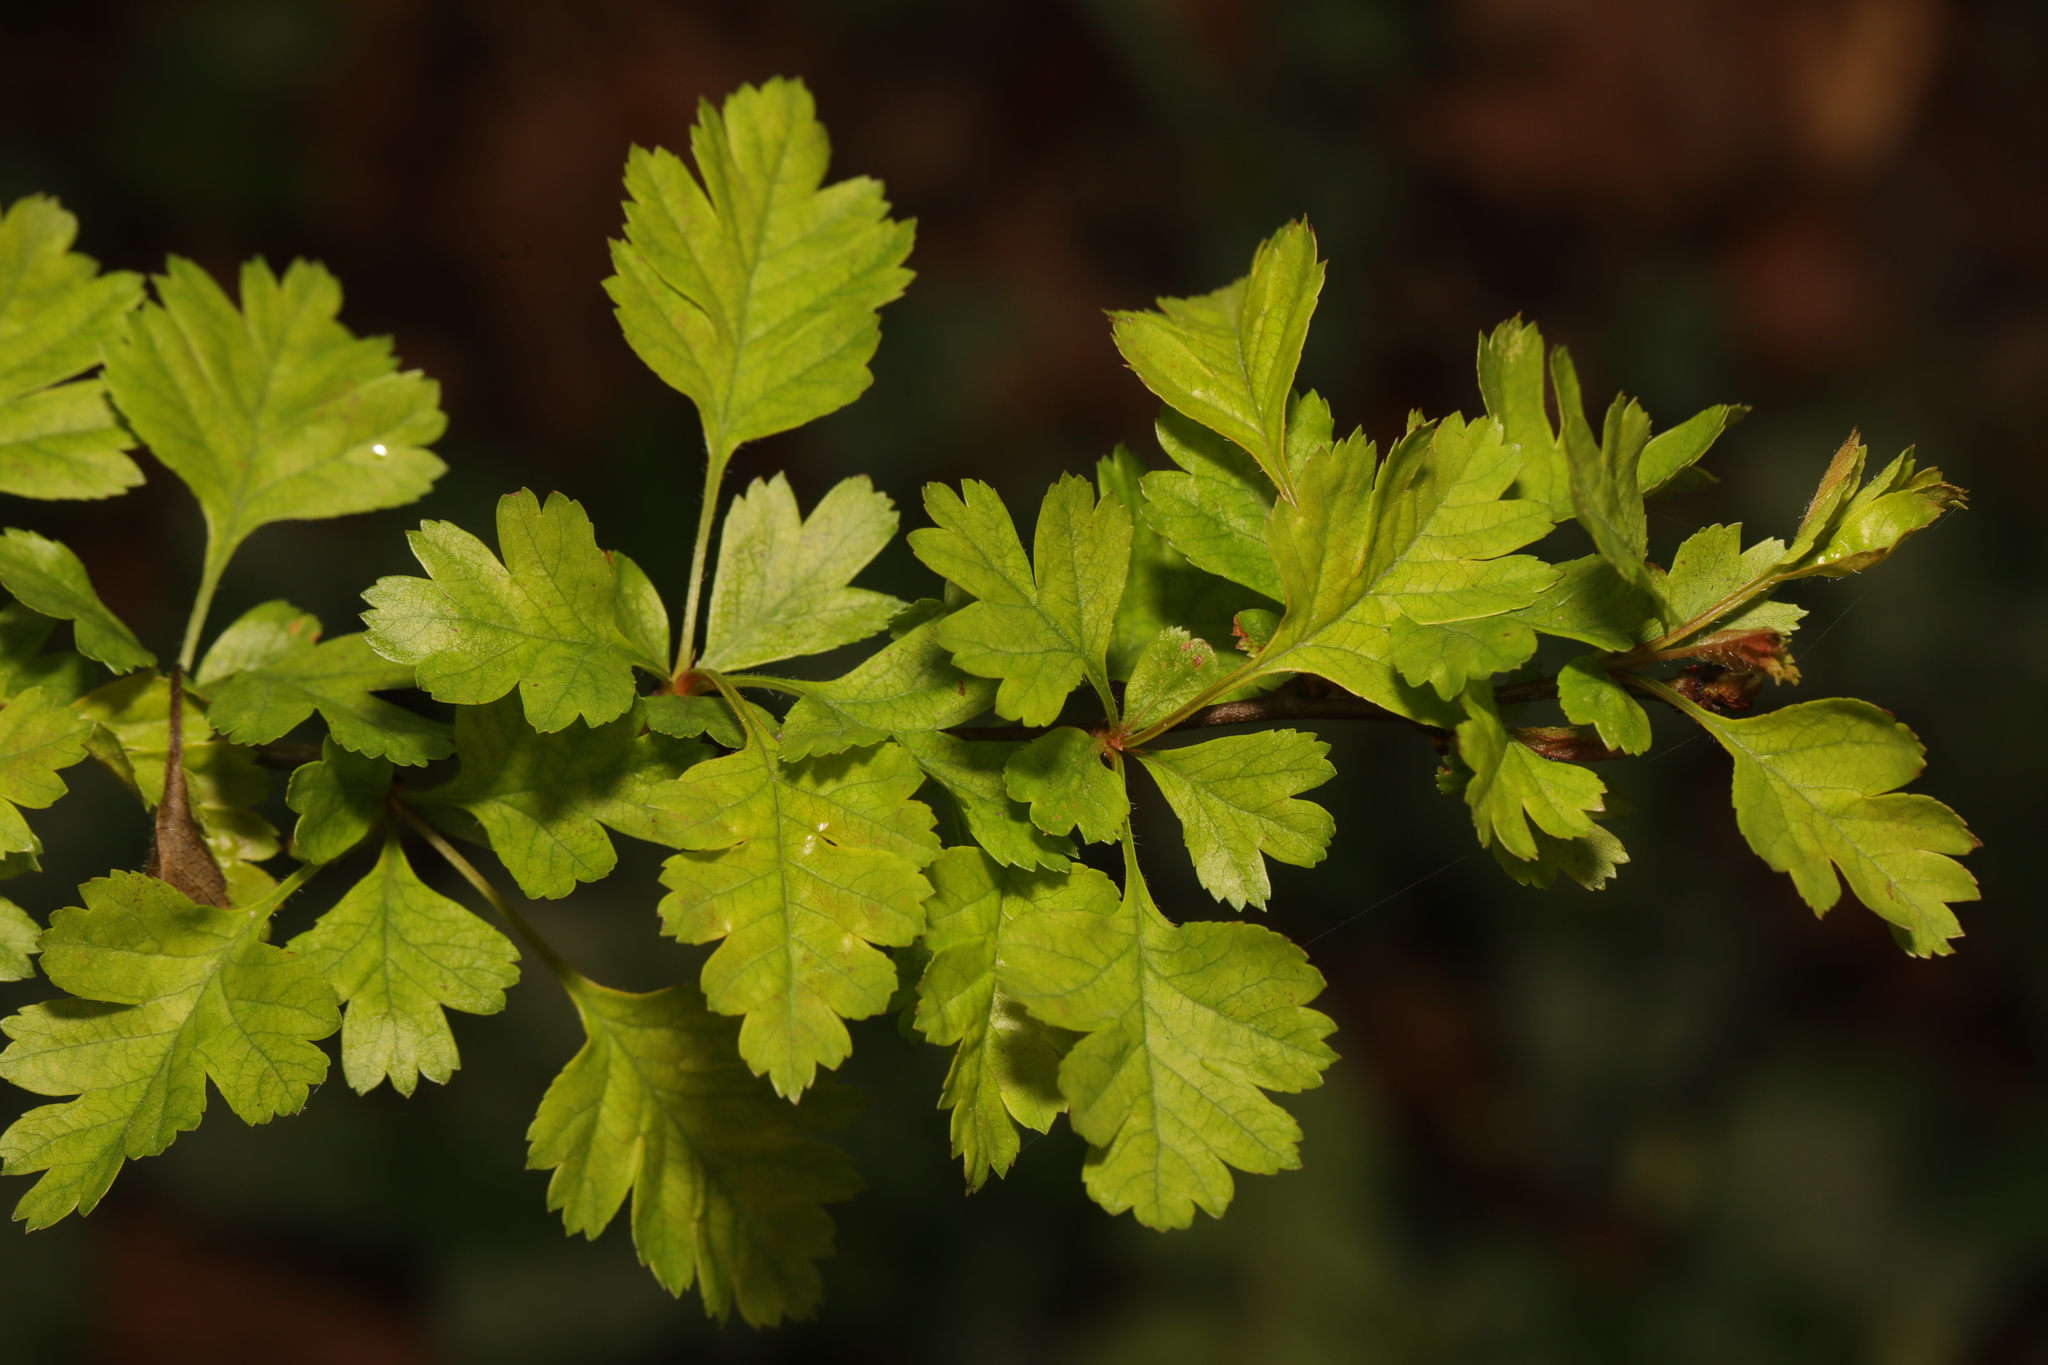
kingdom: Plantae
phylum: Tracheophyta
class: Magnoliopsida
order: Rosales
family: Rosaceae
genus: Crataegus
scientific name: Crataegus monogyna
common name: Hawthorn
